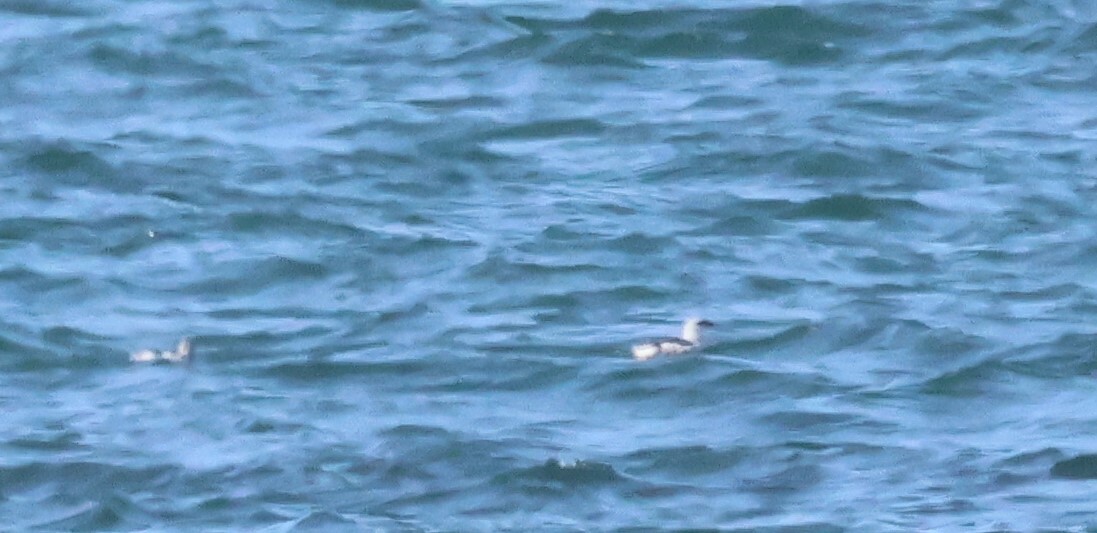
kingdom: Animalia
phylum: Chordata
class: Aves
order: Charadriiformes
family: Alcidae
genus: Cepphus
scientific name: Cepphus grylle
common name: Black guillemot
